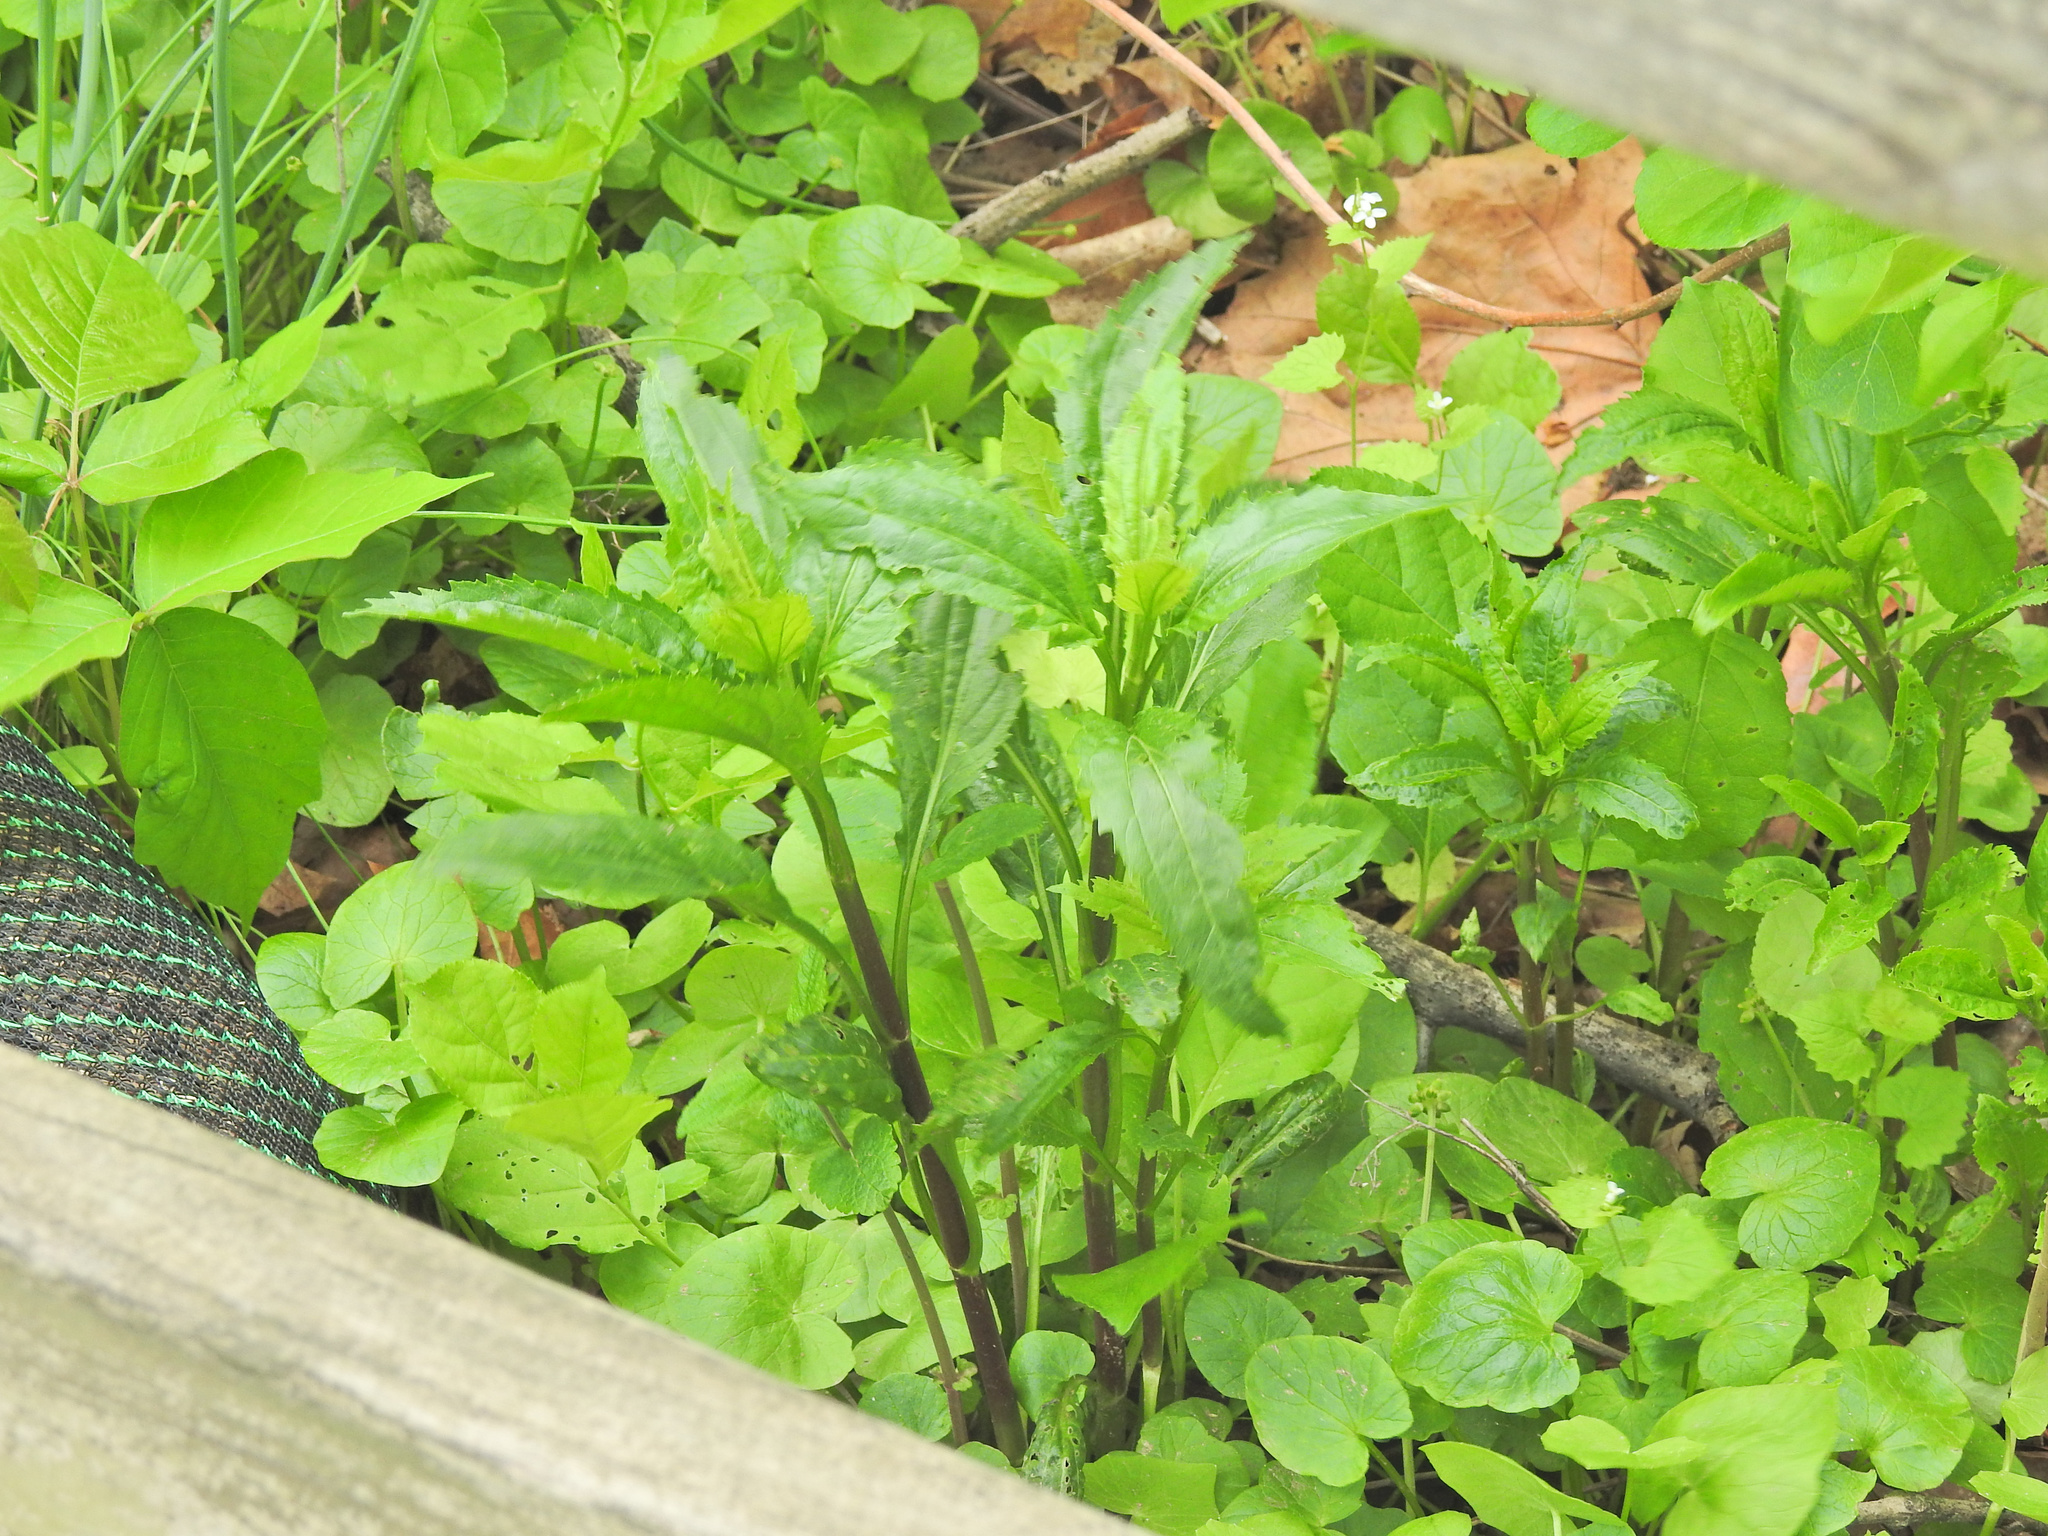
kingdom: Plantae
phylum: Tracheophyta
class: Magnoliopsida
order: Asterales
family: Asteraceae
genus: Eupatorium
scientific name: Eupatorium serotinum
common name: Late boneset
